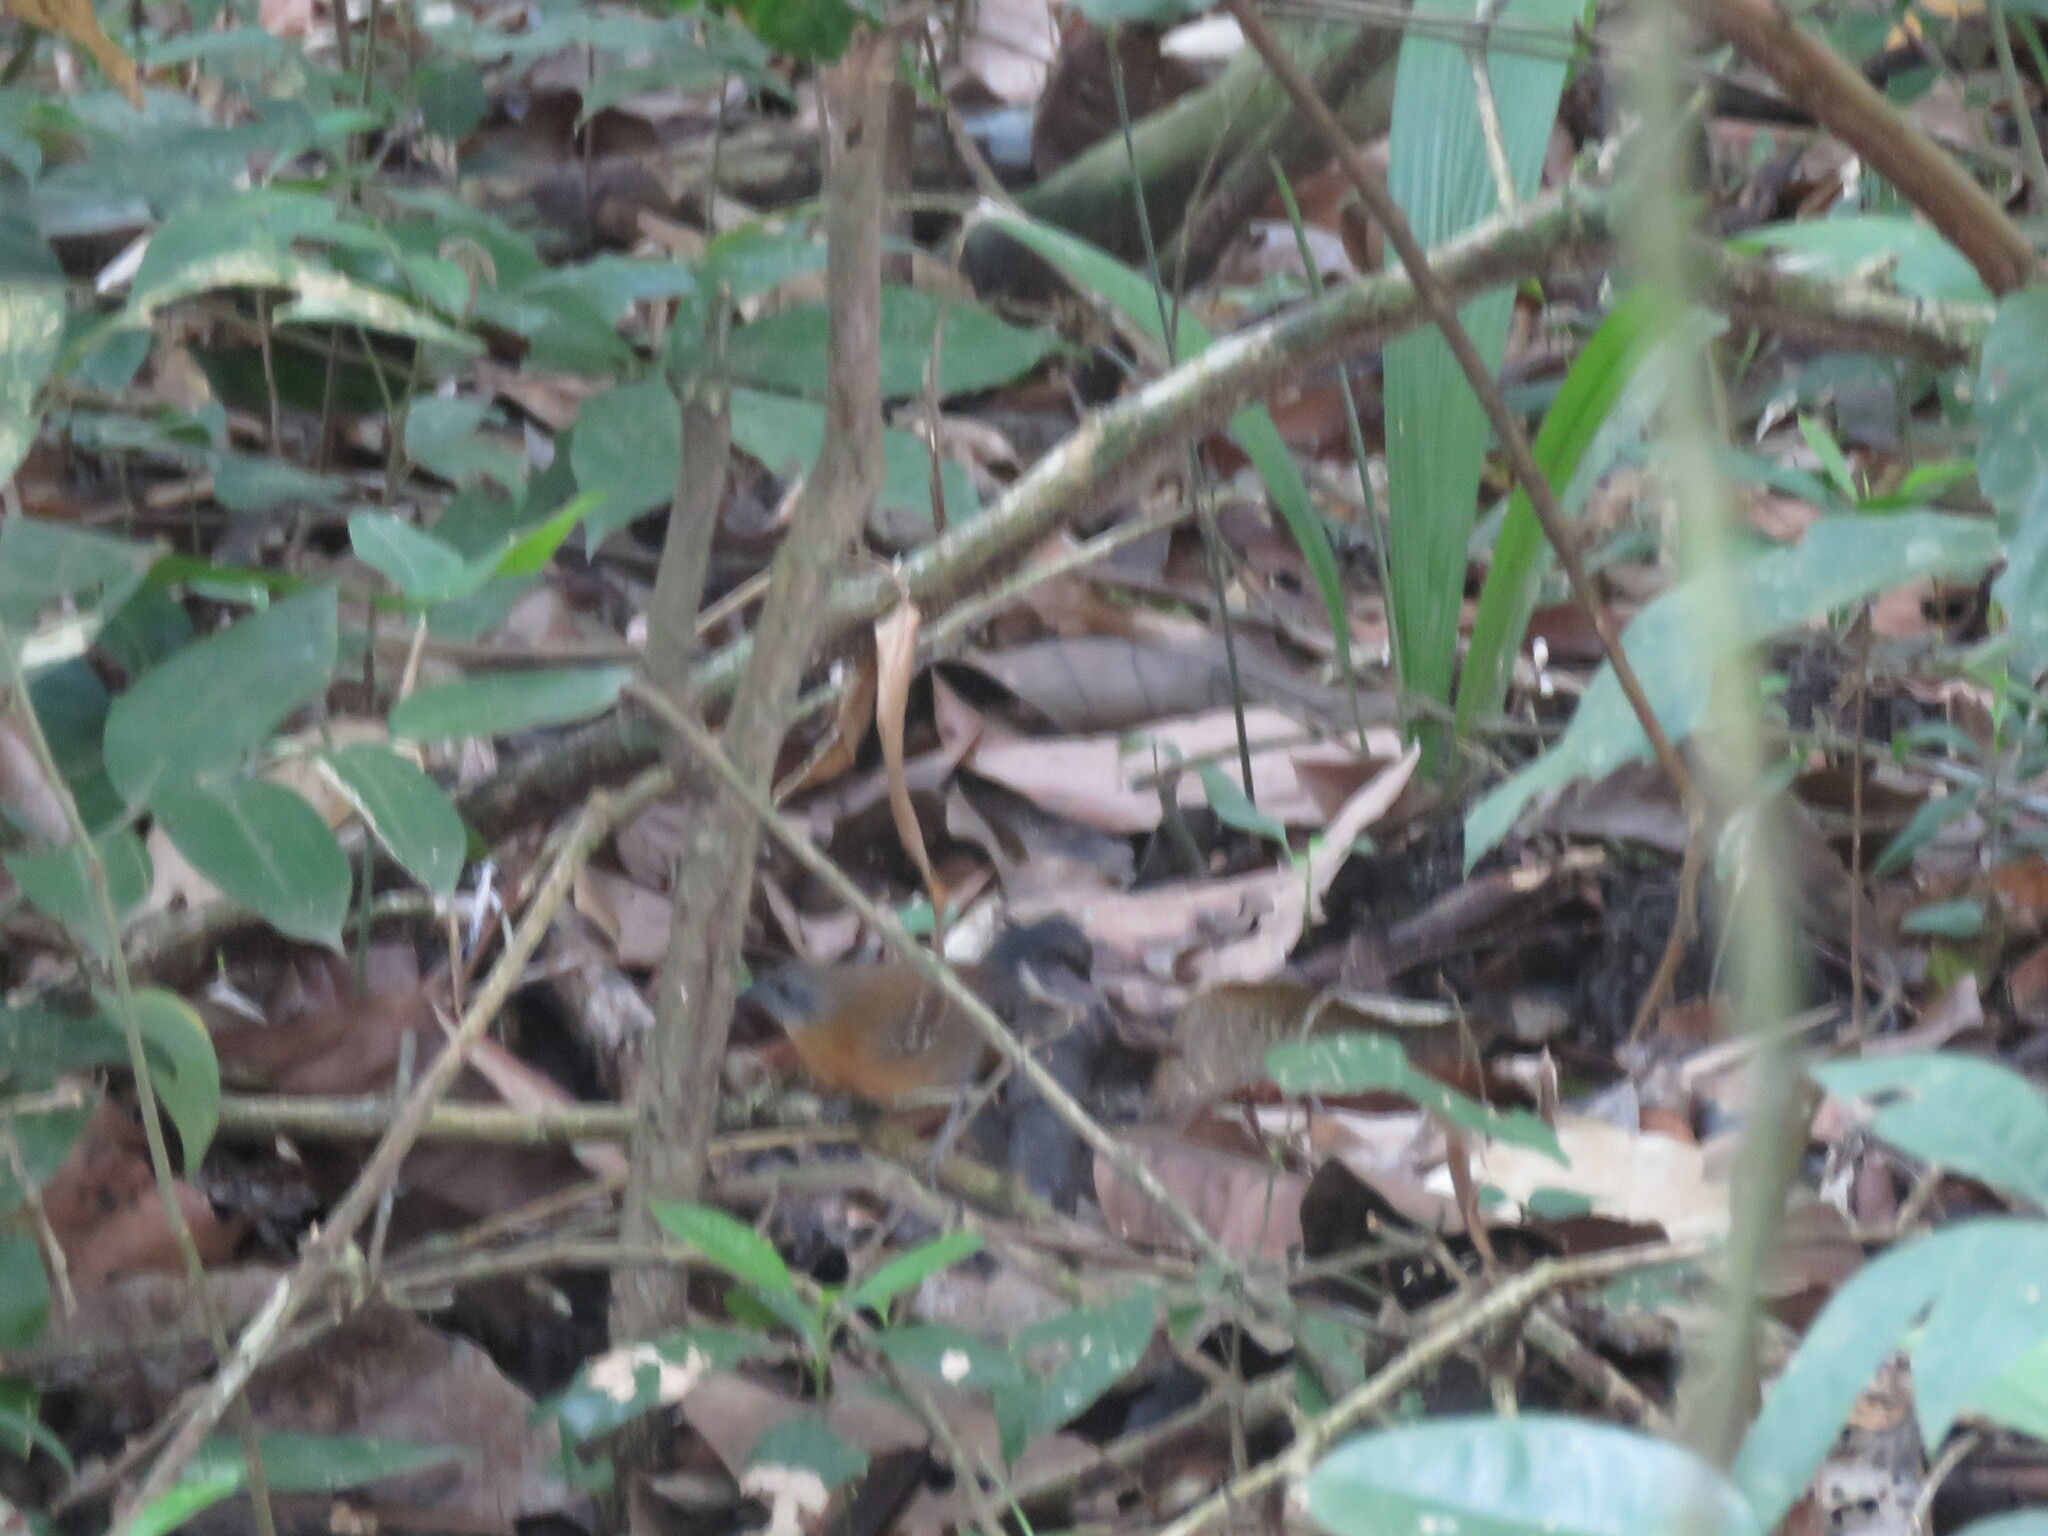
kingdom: Animalia
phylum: Chordata
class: Aves
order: Passeriformes
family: Thamnophilidae
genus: Myrmeciza
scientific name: Myrmeciza atrothorax
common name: Black-throated antbird
